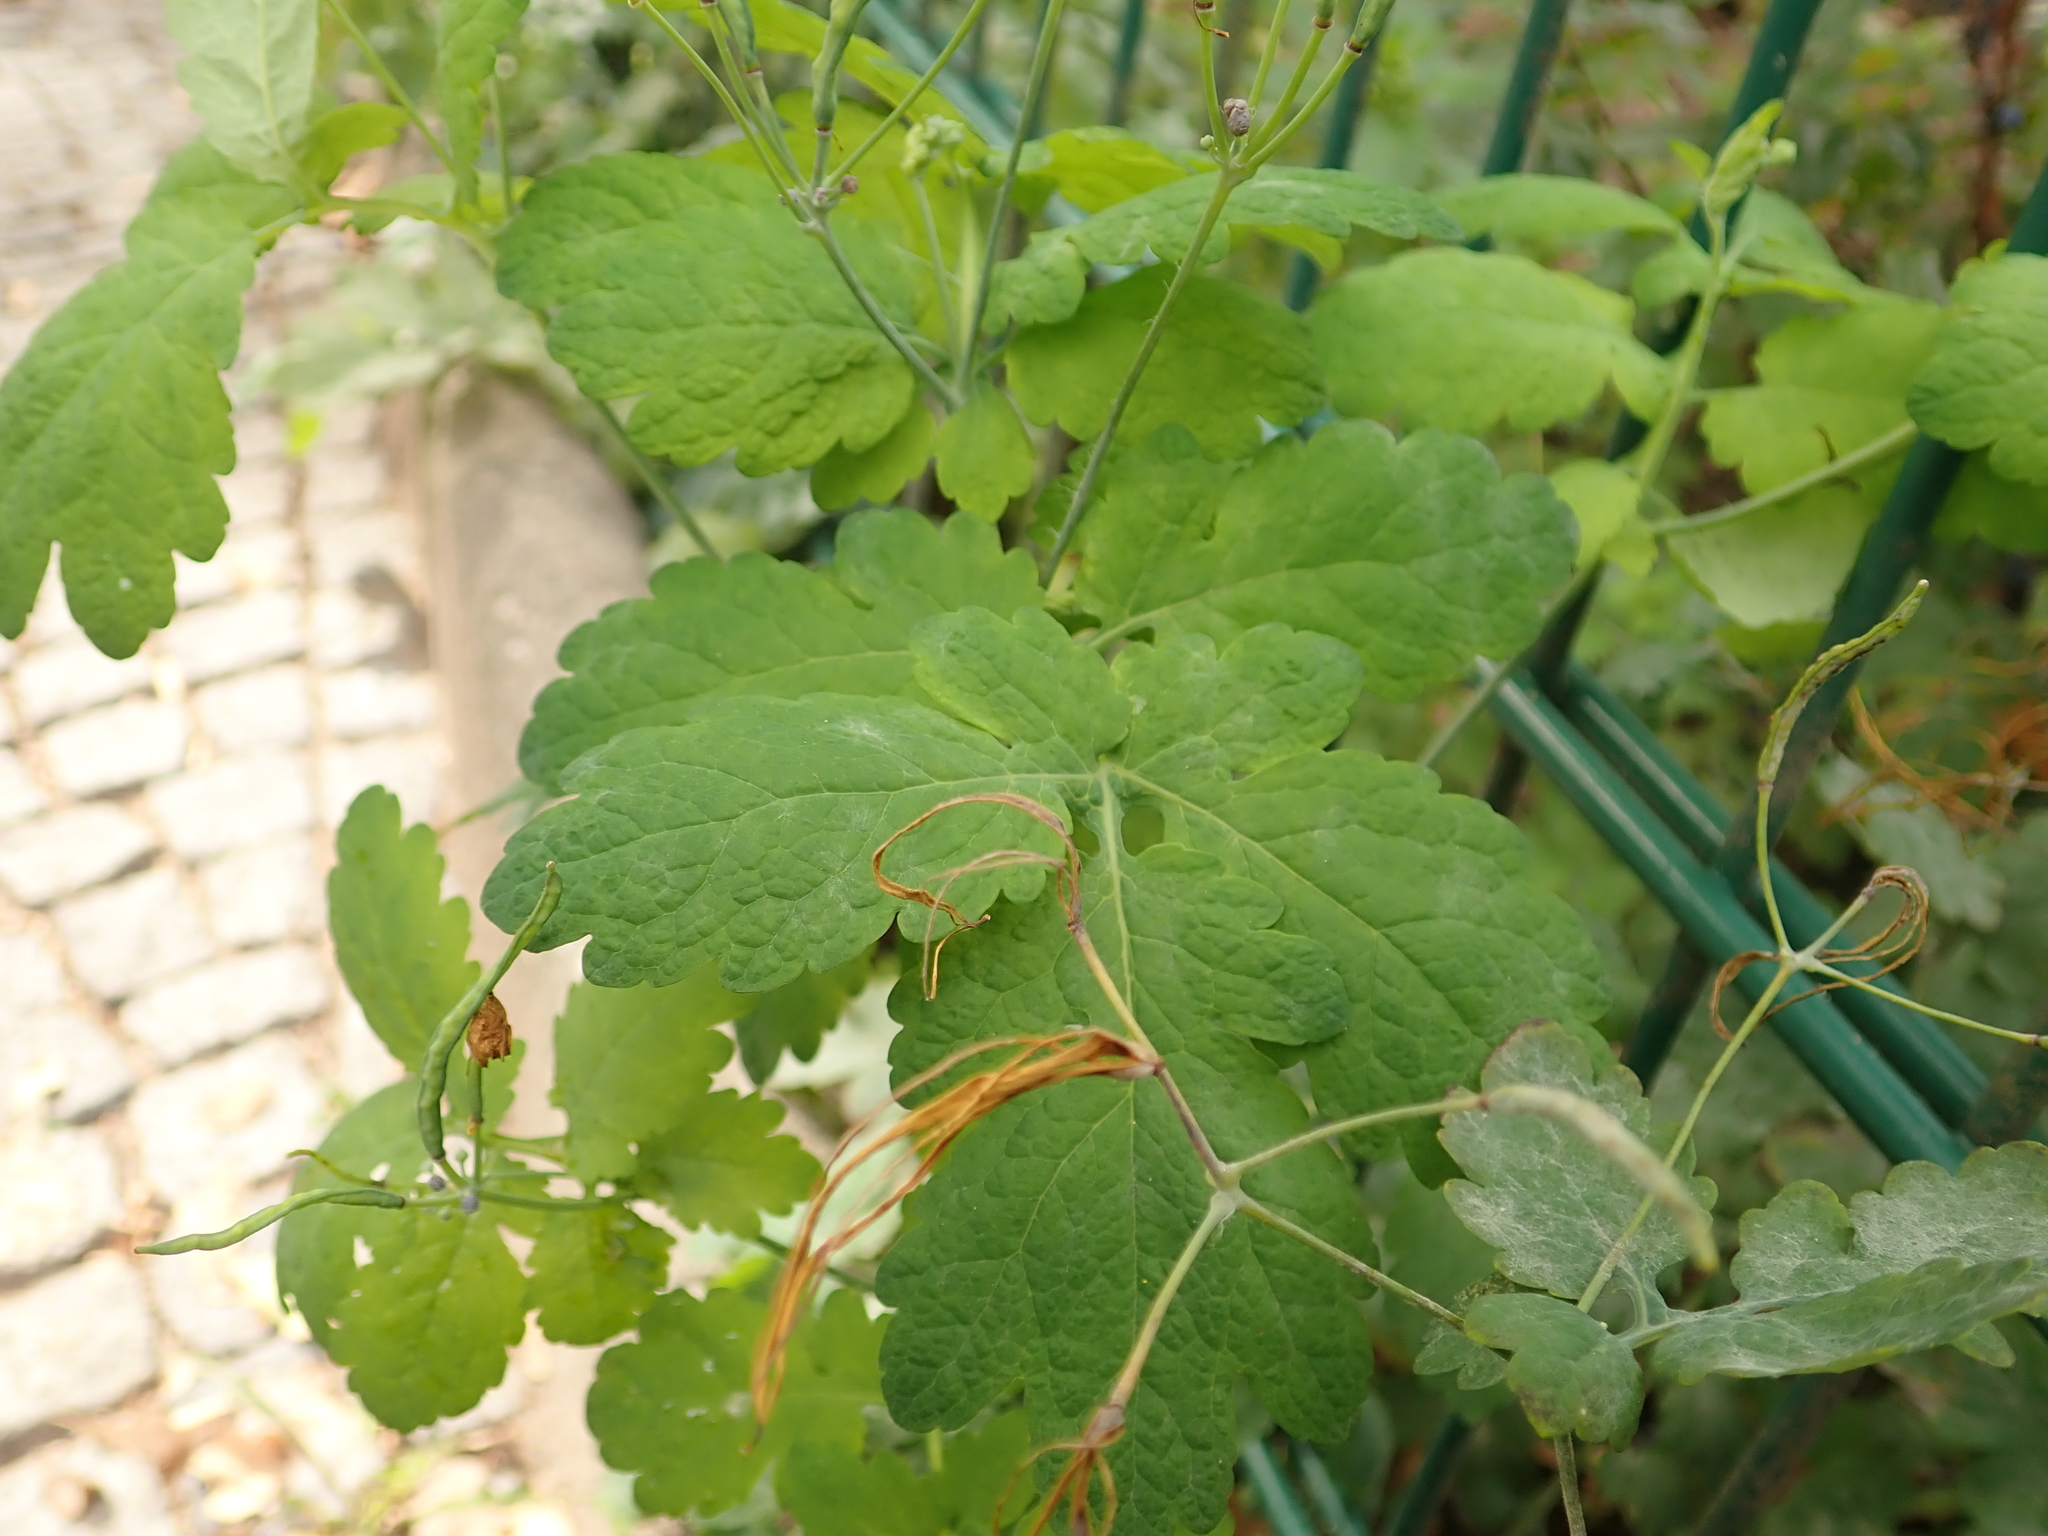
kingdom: Plantae
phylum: Tracheophyta
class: Magnoliopsida
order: Ranunculales
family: Papaveraceae
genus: Chelidonium
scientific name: Chelidonium majus
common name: Greater celandine
